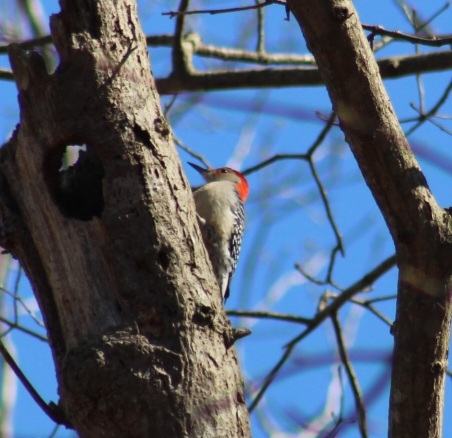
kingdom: Animalia
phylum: Chordata
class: Aves
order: Piciformes
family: Picidae
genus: Melanerpes
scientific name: Melanerpes carolinus
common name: Red-bellied woodpecker
